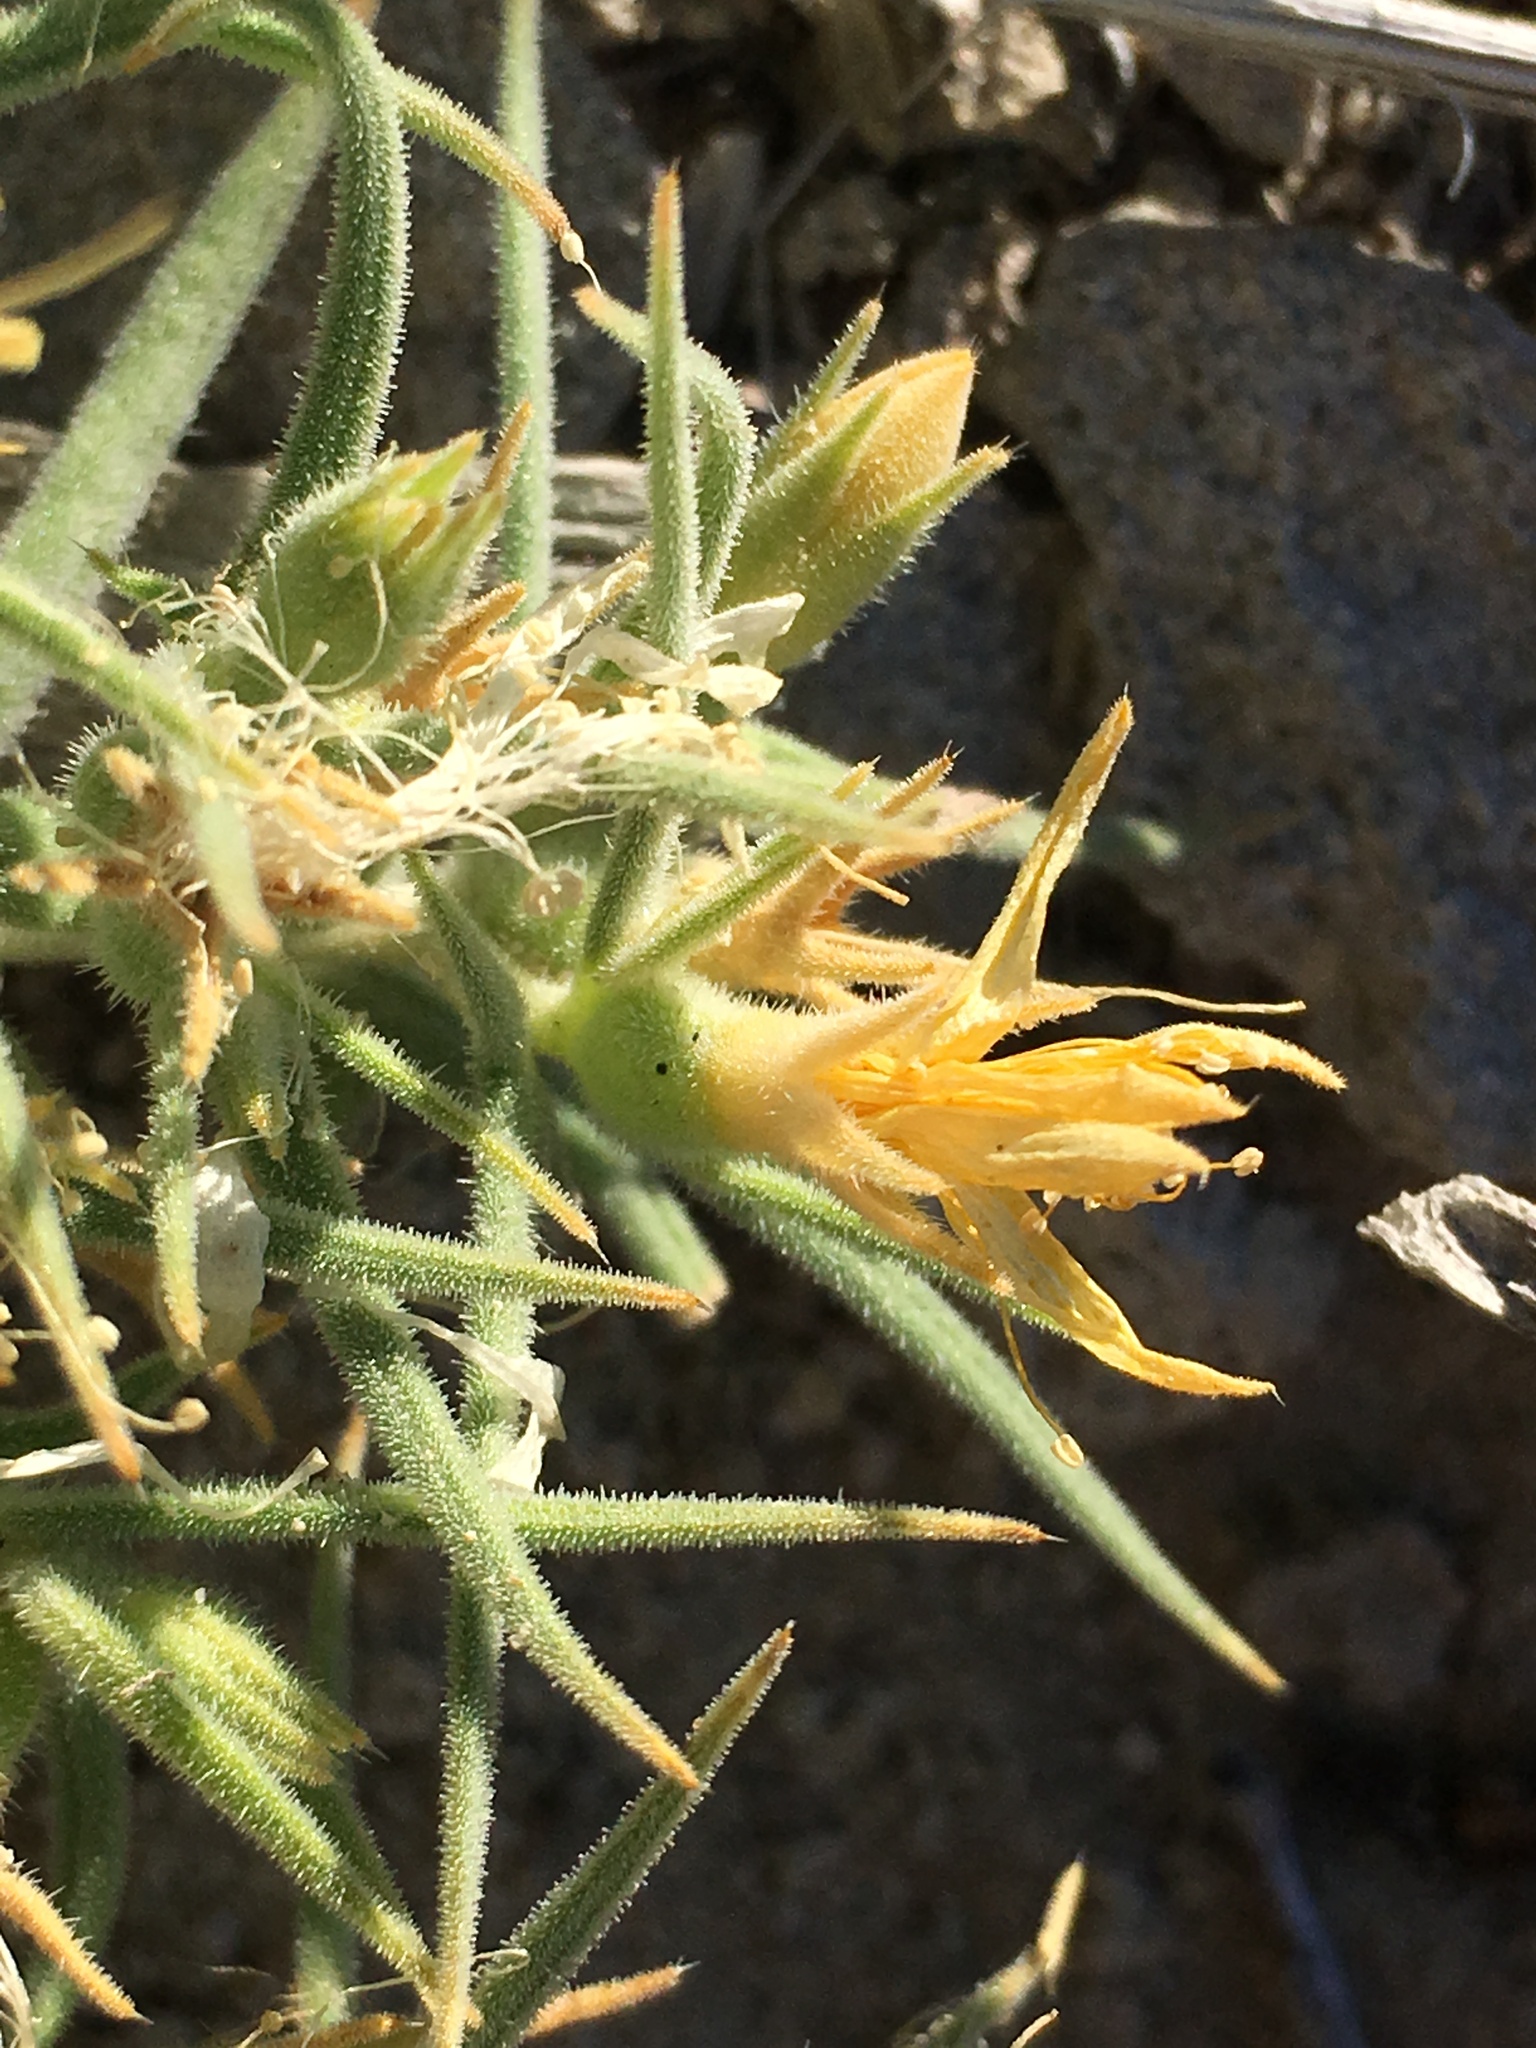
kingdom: Plantae
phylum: Tracheophyta
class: Magnoliopsida
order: Cornales
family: Loasaceae
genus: Mentzelia
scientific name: Mentzelia torreyi
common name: Torrey's blazingstar
